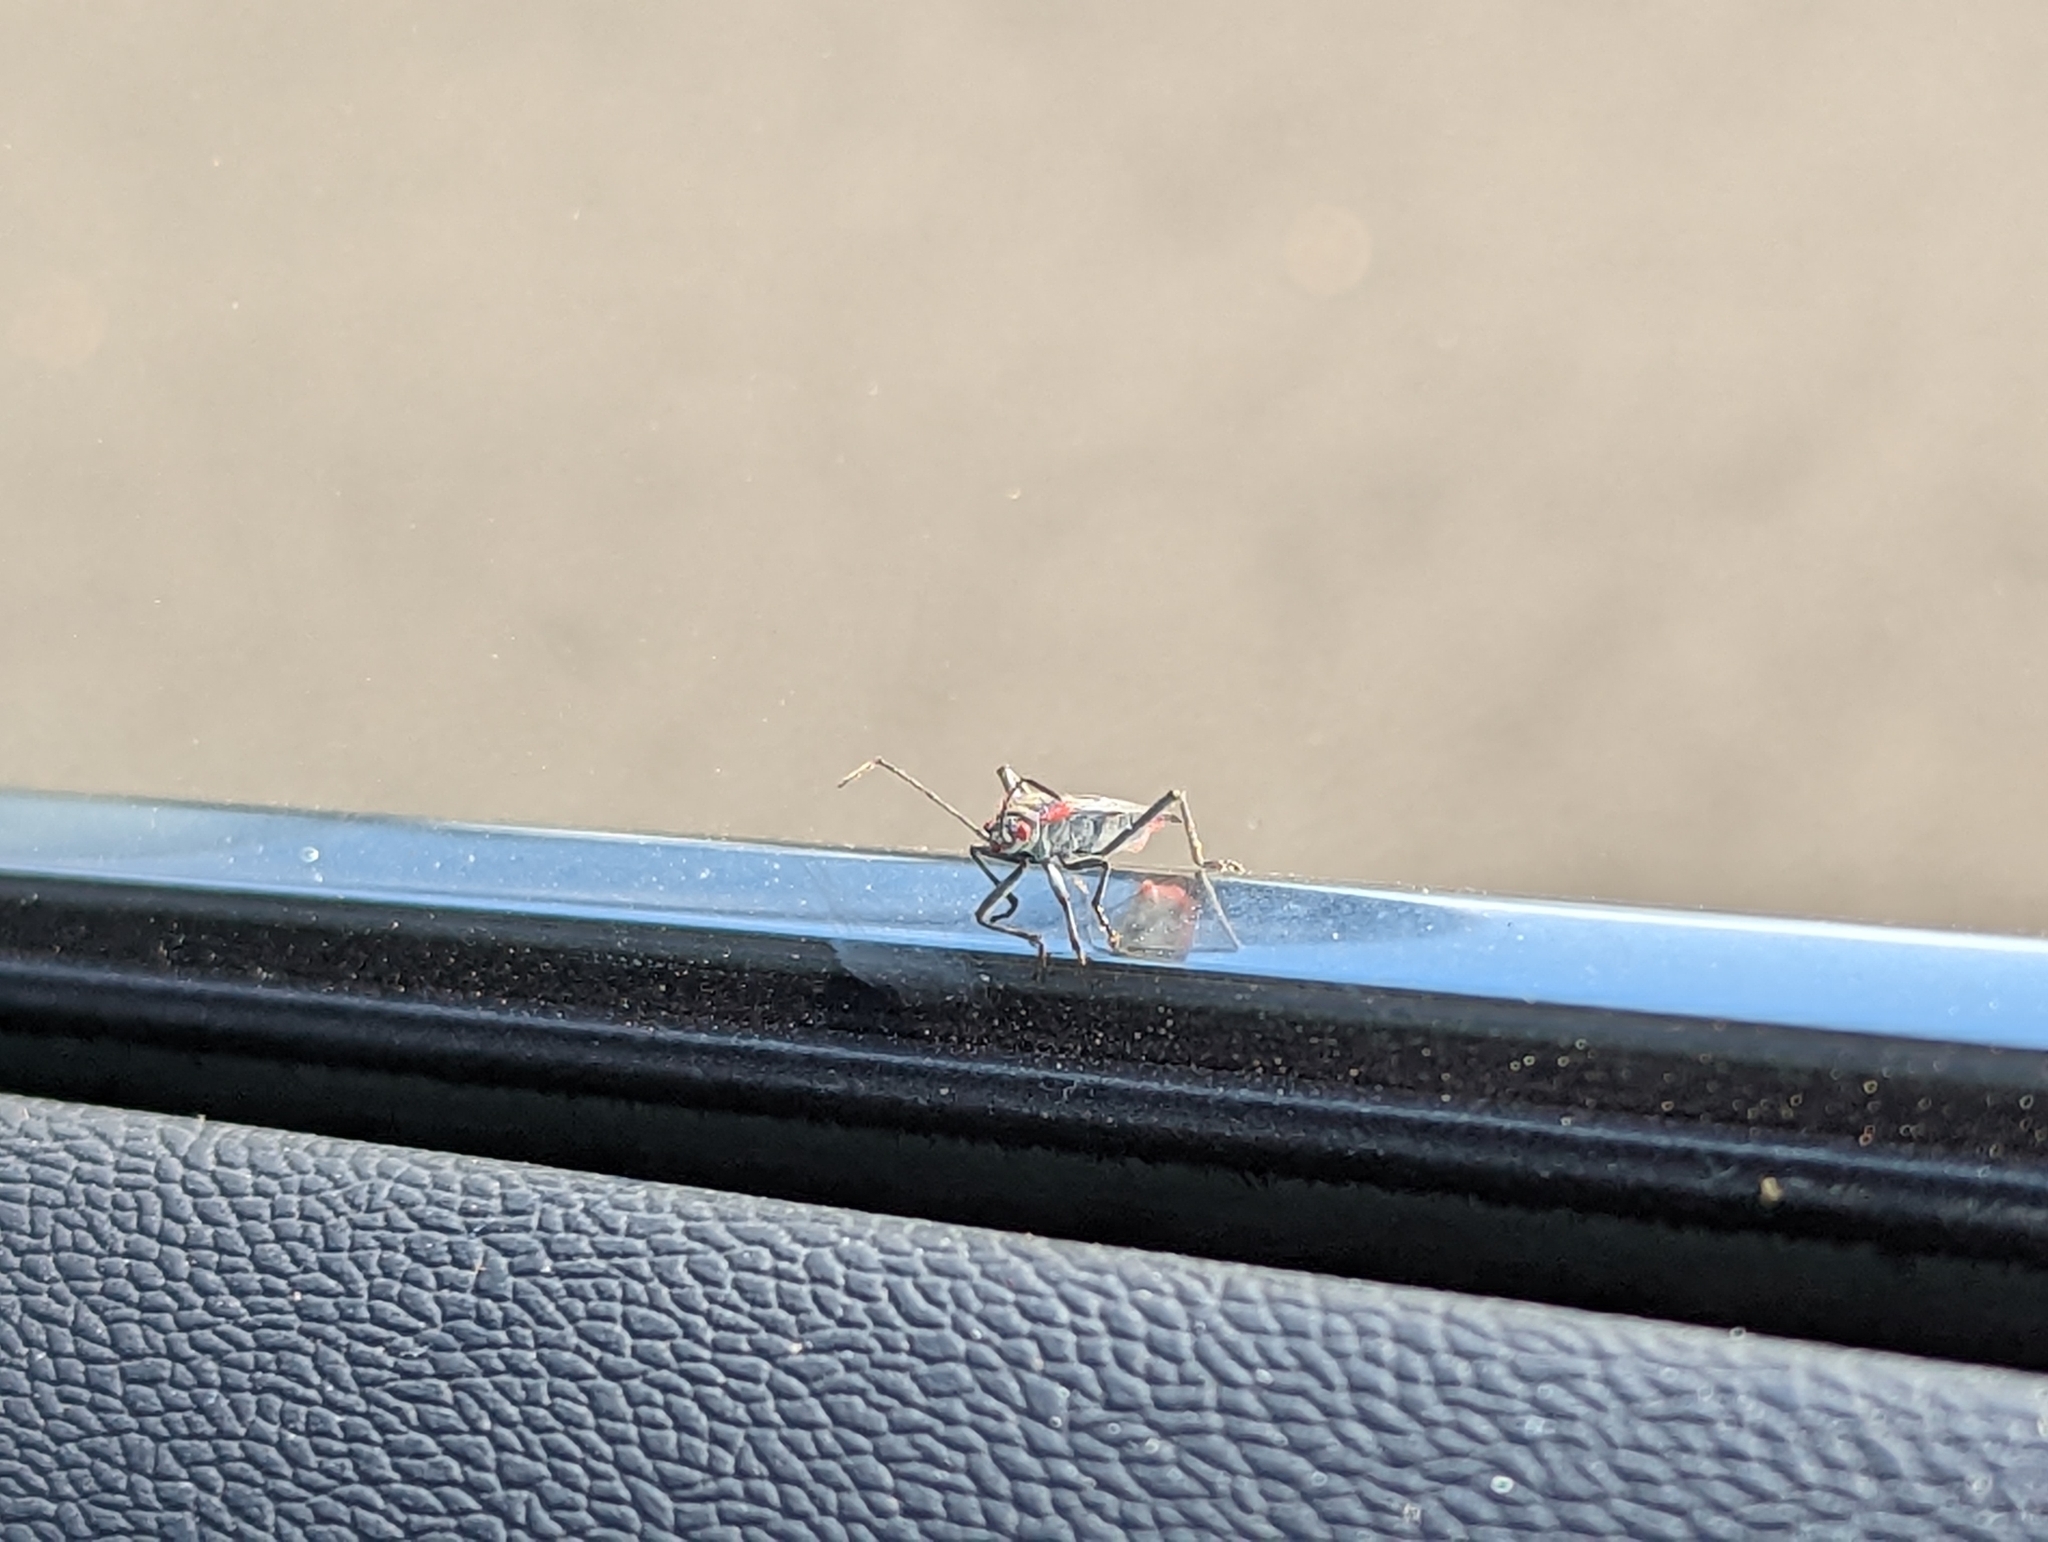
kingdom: Animalia
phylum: Arthropoda
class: Insecta
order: Hemiptera
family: Rhopalidae
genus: Jadera
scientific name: Jadera haematoloma
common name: Red-shouldered bug
